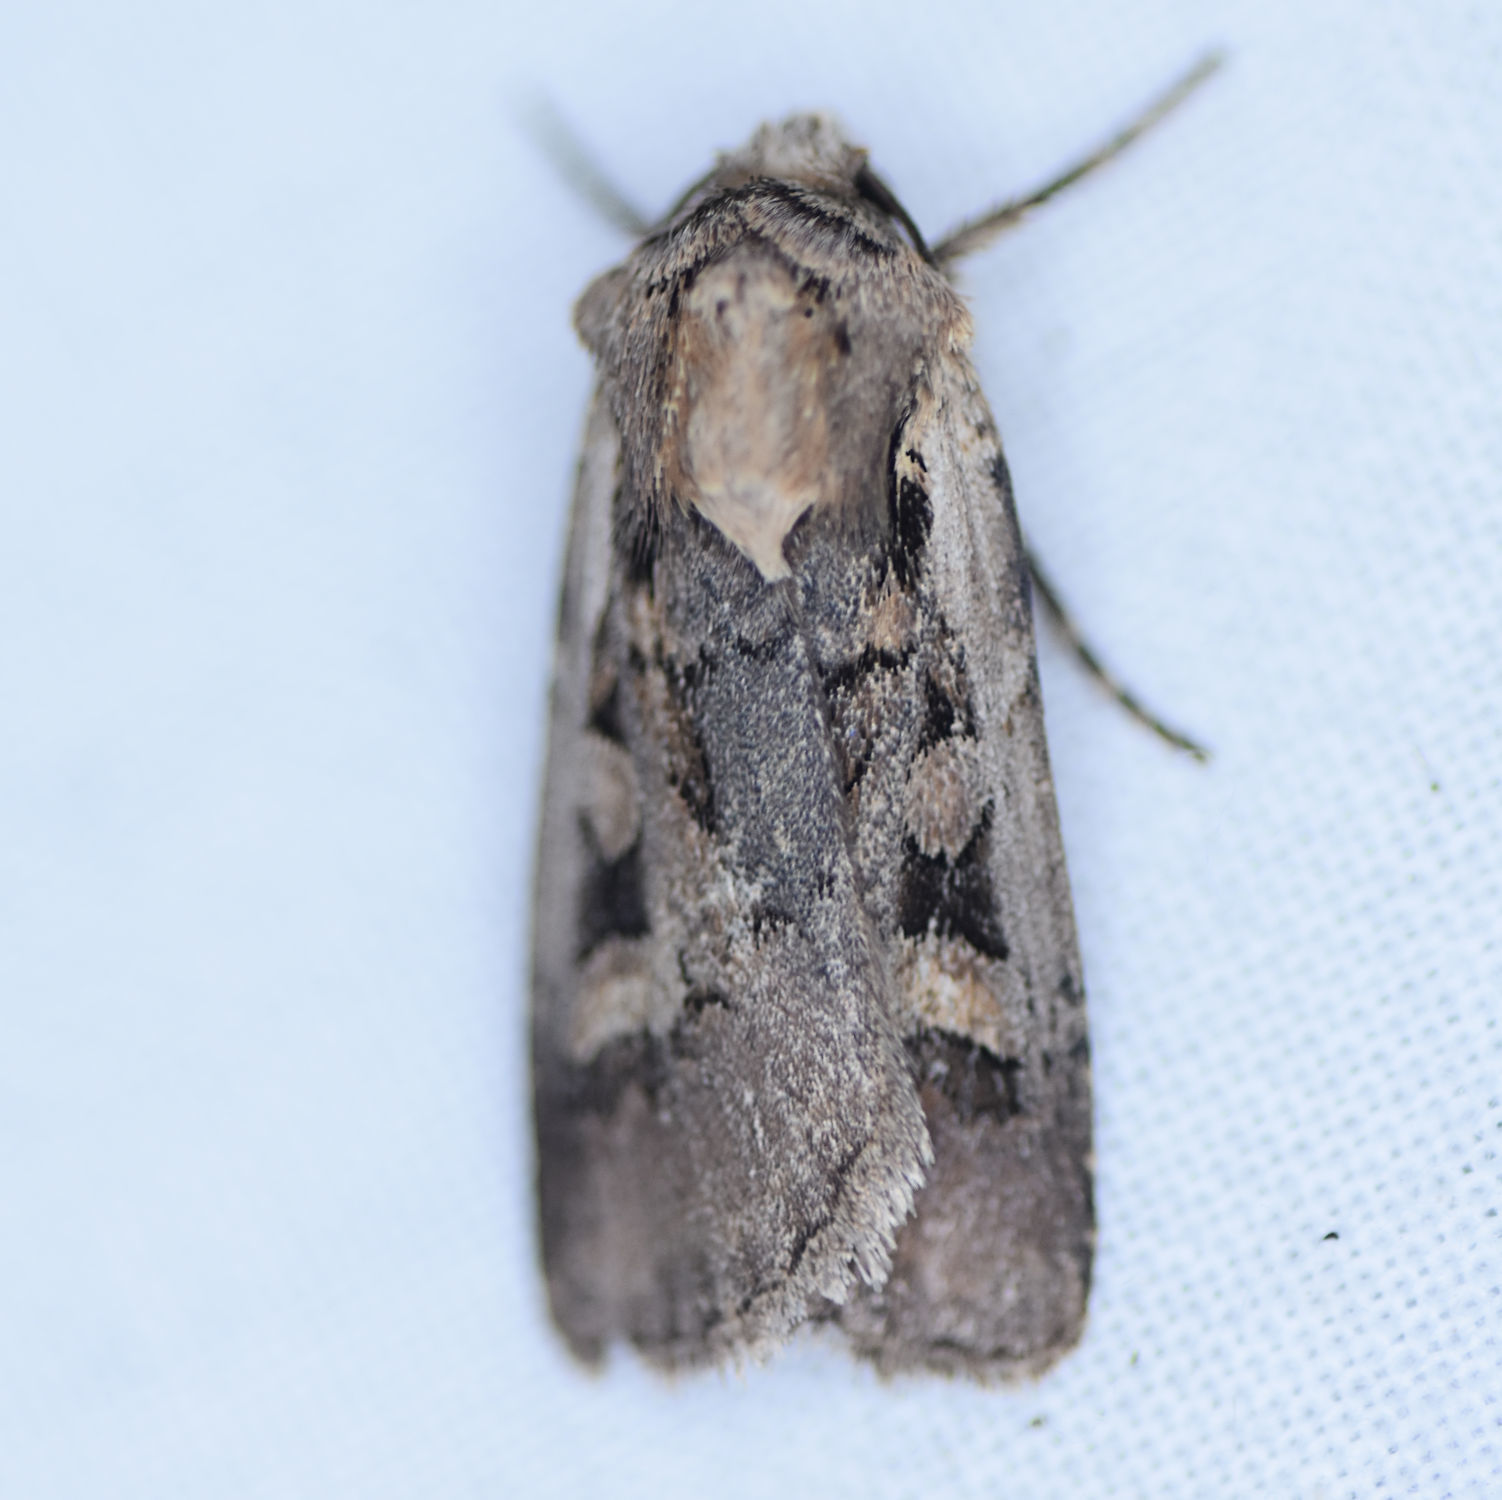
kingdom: Animalia
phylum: Arthropoda
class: Insecta
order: Lepidoptera
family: Noctuidae
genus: Euxoa
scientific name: Euxoa obeliscoides
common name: Obelisk dart moth
